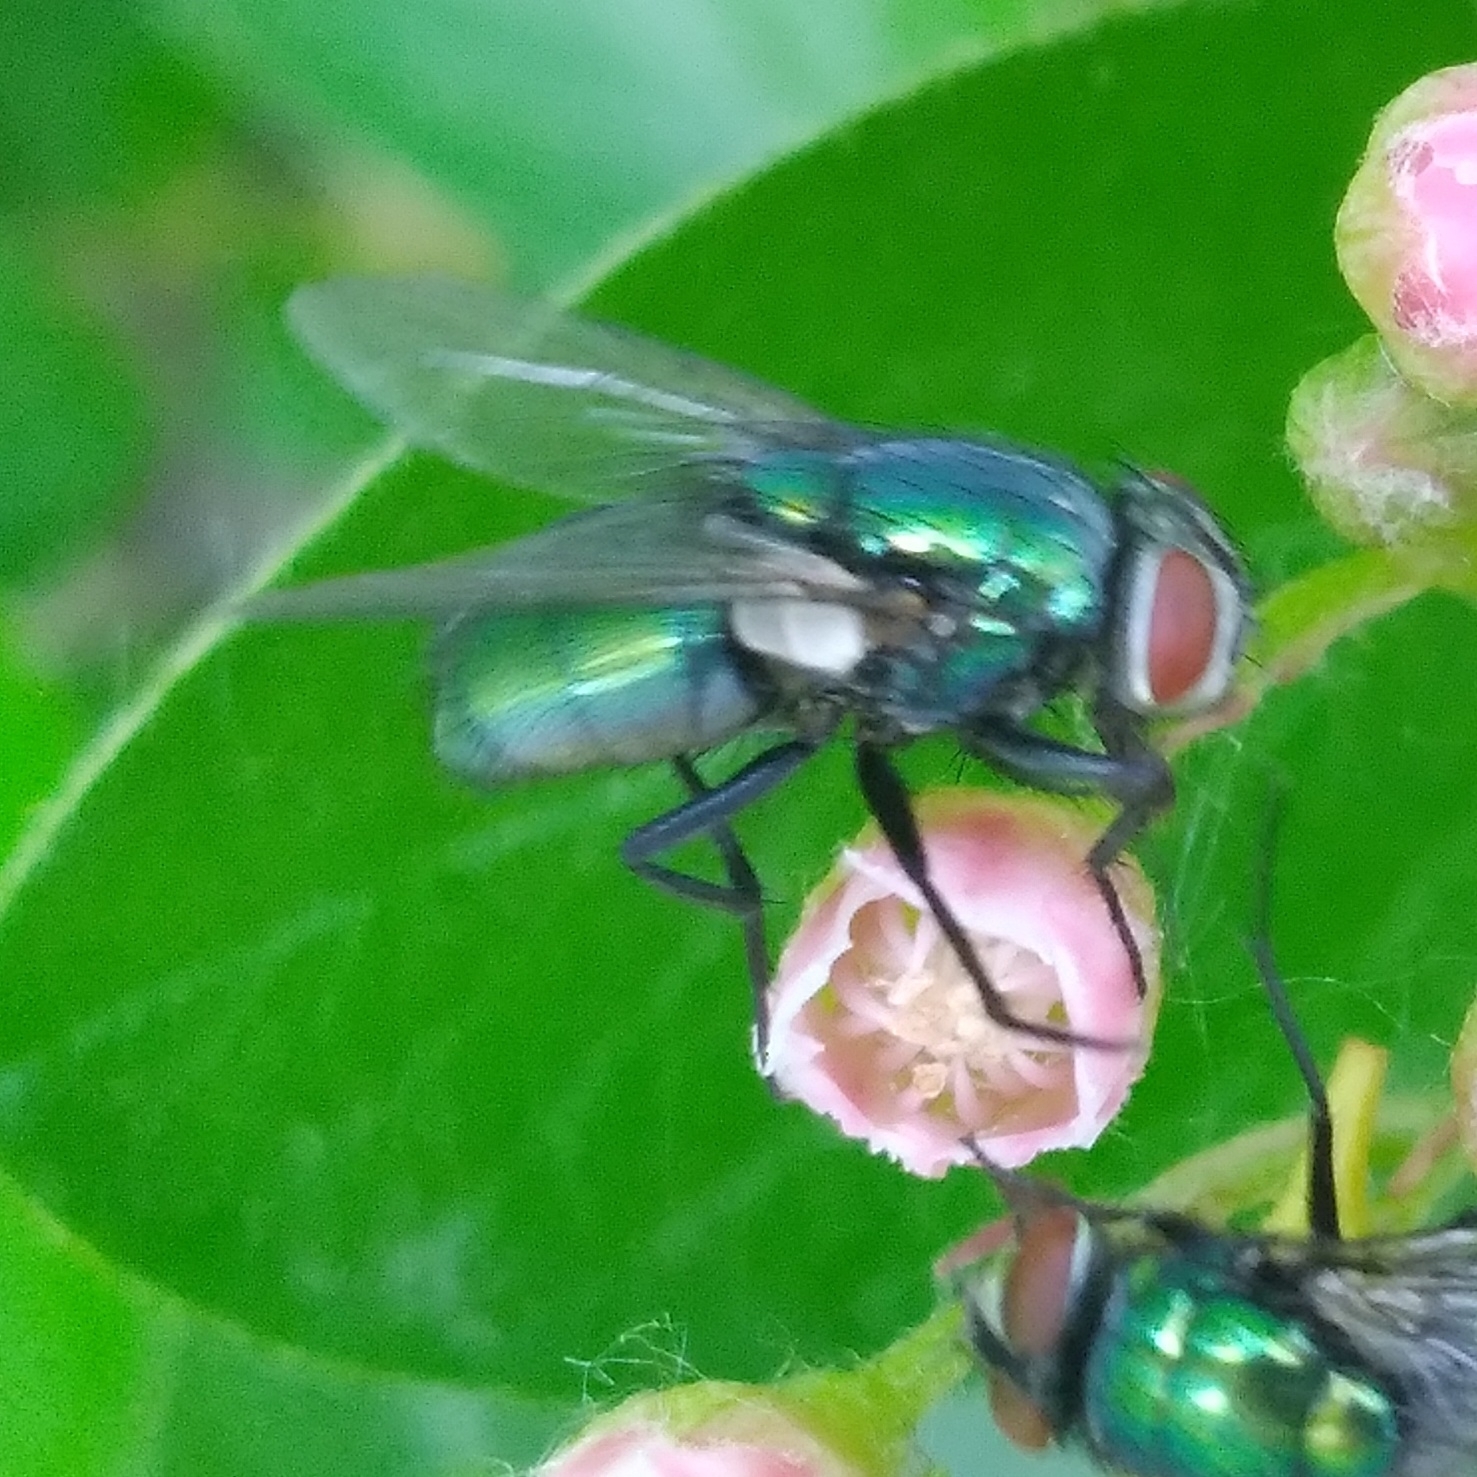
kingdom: Animalia
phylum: Arthropoda
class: Insecta
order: Diptera
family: Calliphoridae
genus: Lucilia
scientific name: Lucilia sericata
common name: Blow fly
